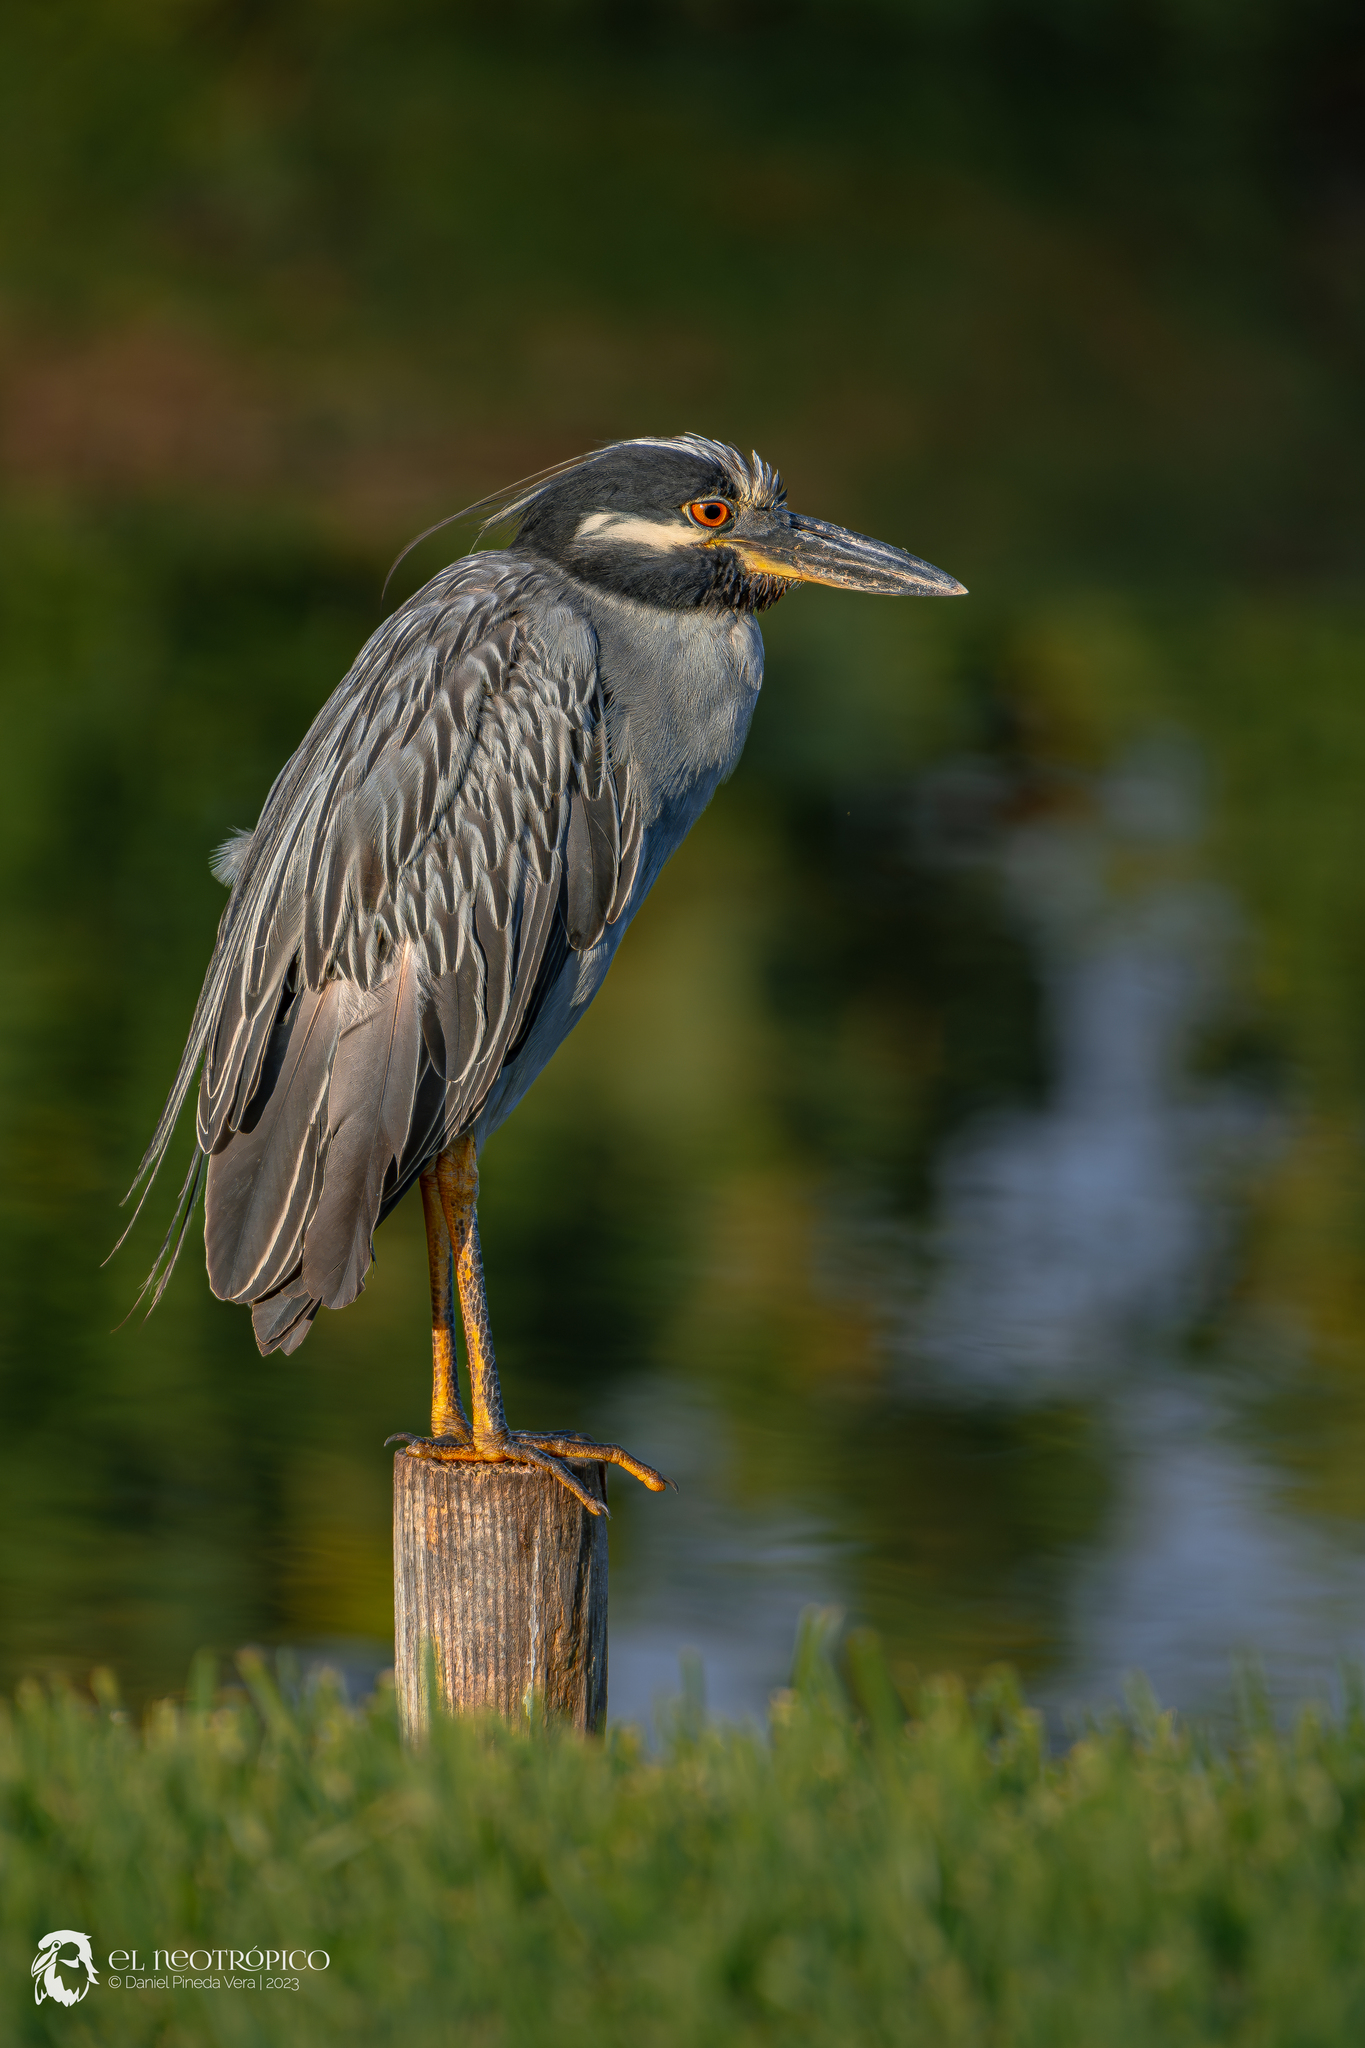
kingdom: Animalia
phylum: Chordata
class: Aves
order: Pelecaniformes
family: Ardeidae
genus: Nyctanassa
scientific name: Nyctanassa violacea
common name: Yellow-crowned night heron
